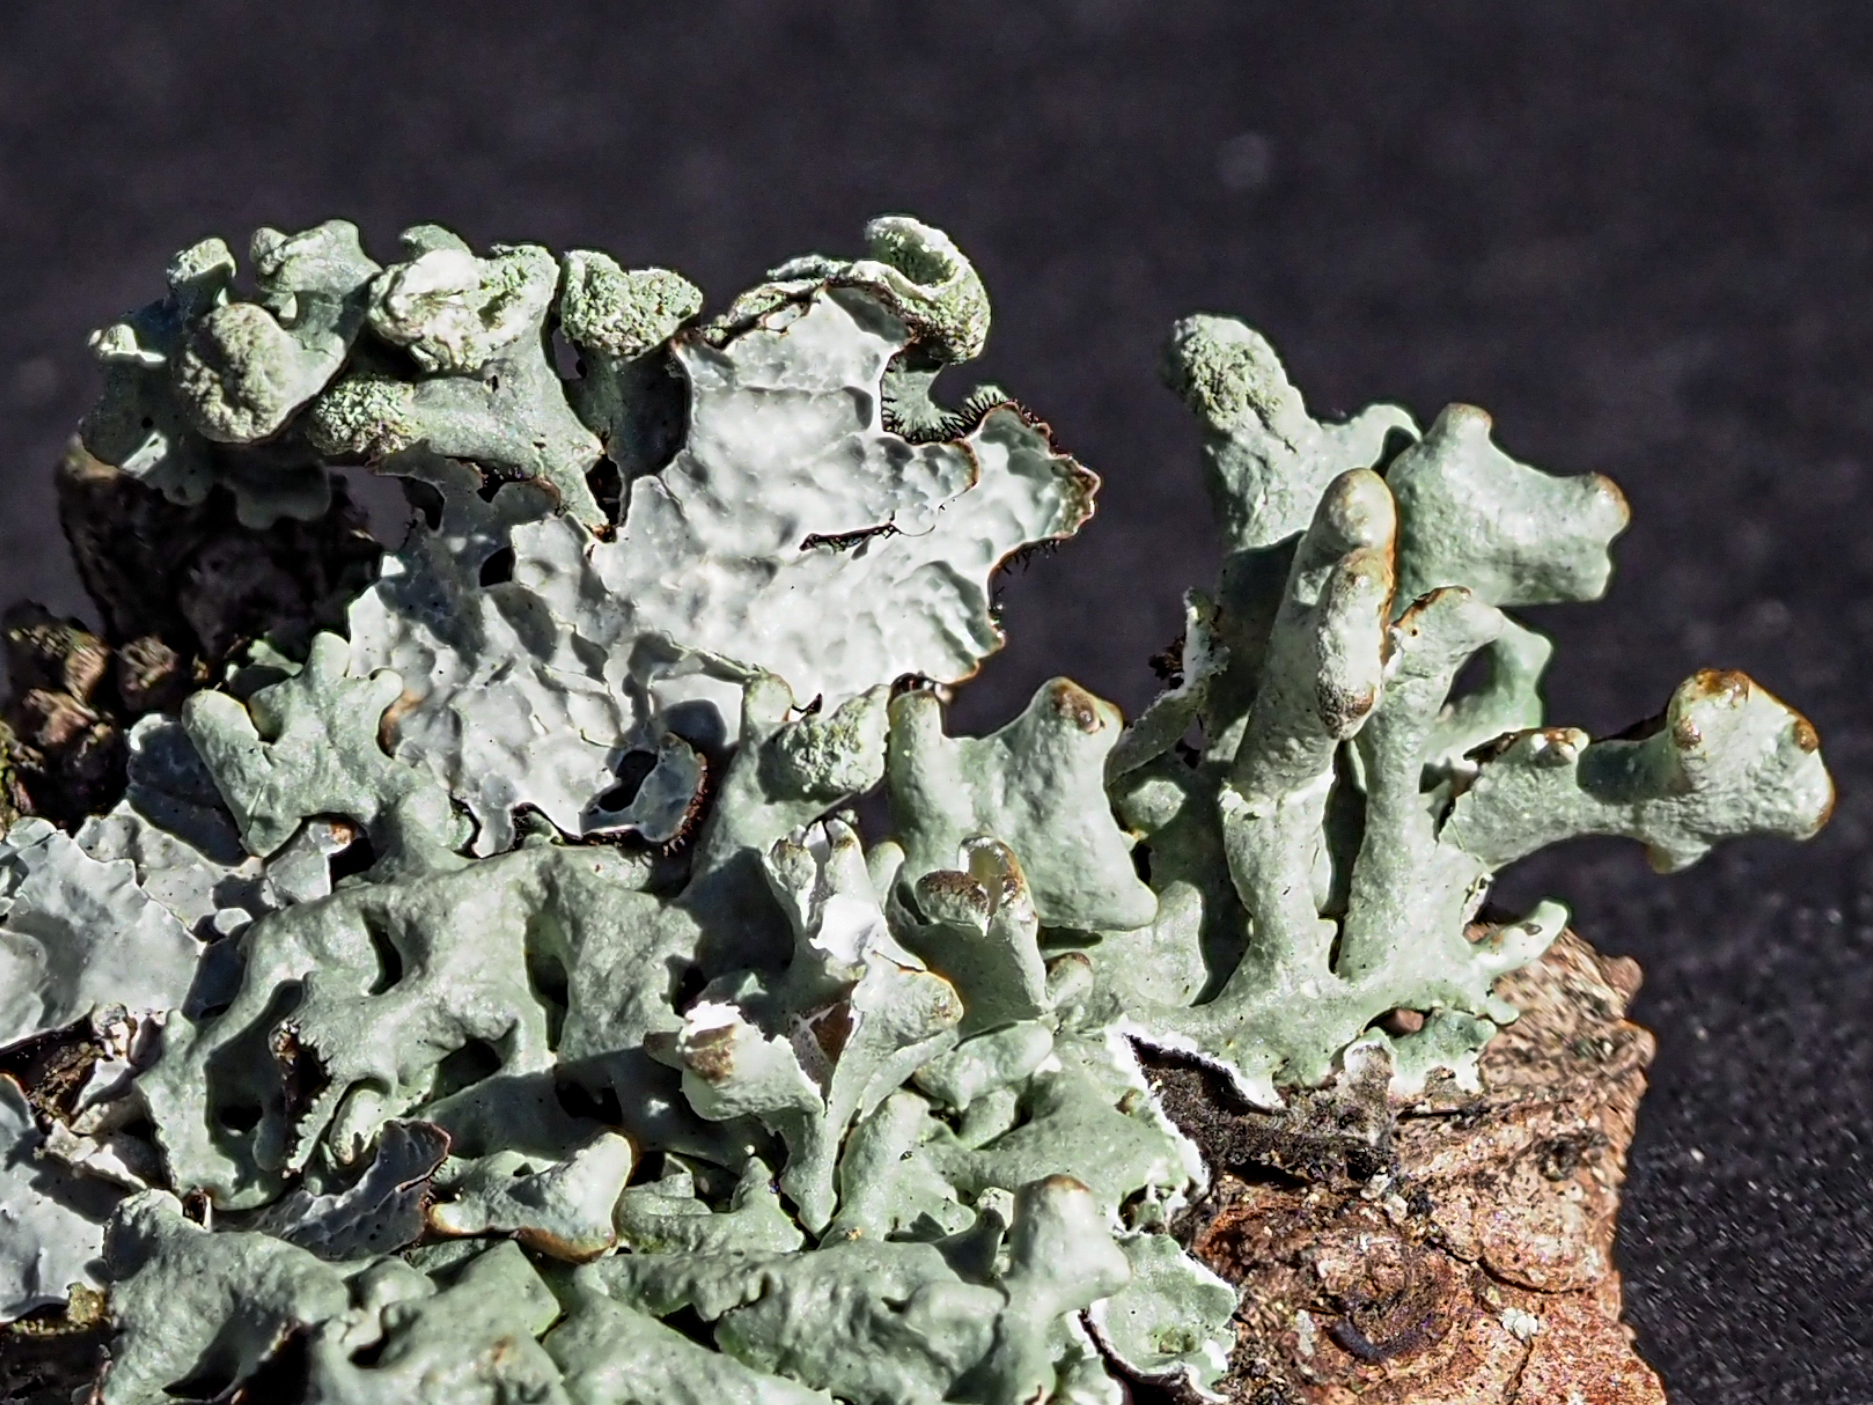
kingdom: Fungi
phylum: Ascomycota
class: Lecanoromycetes
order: Lecanorales
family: Parmeliaceae
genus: Hypogymnia
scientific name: Hypogymnia tubulosa
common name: Powder-headed tube lichen
